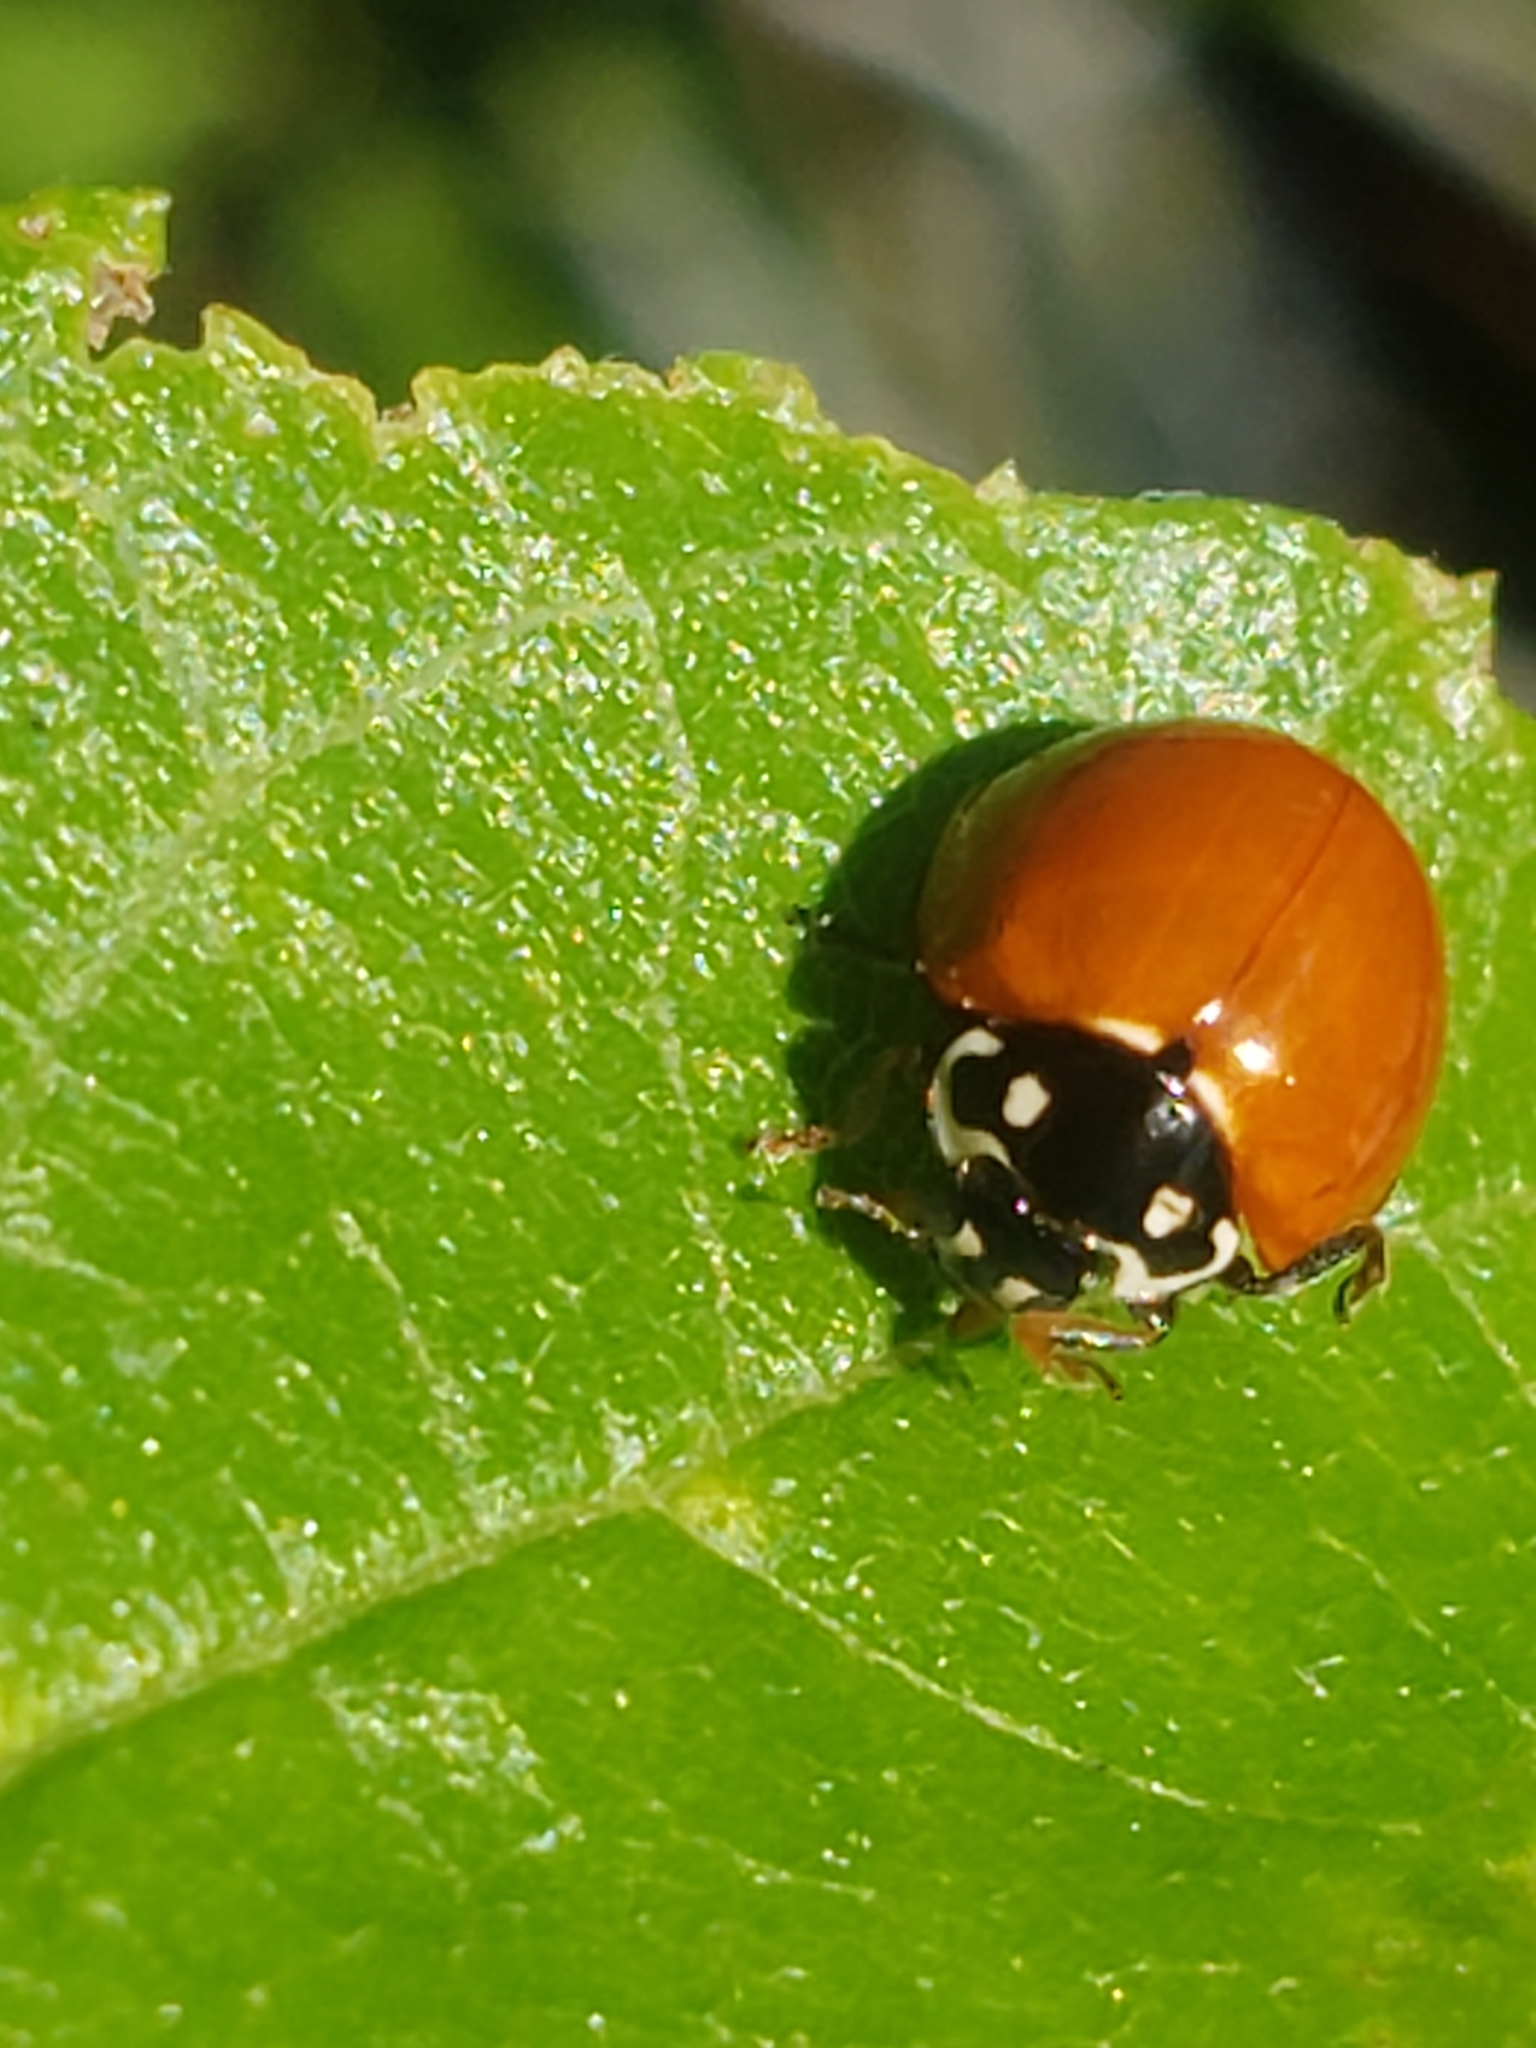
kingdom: Animalia
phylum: Arthropoda
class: Insecta
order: Coleoptera
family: Coccinellidae
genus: Cycloneda
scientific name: Cycloneda sanguinea
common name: Ladybird beetle
